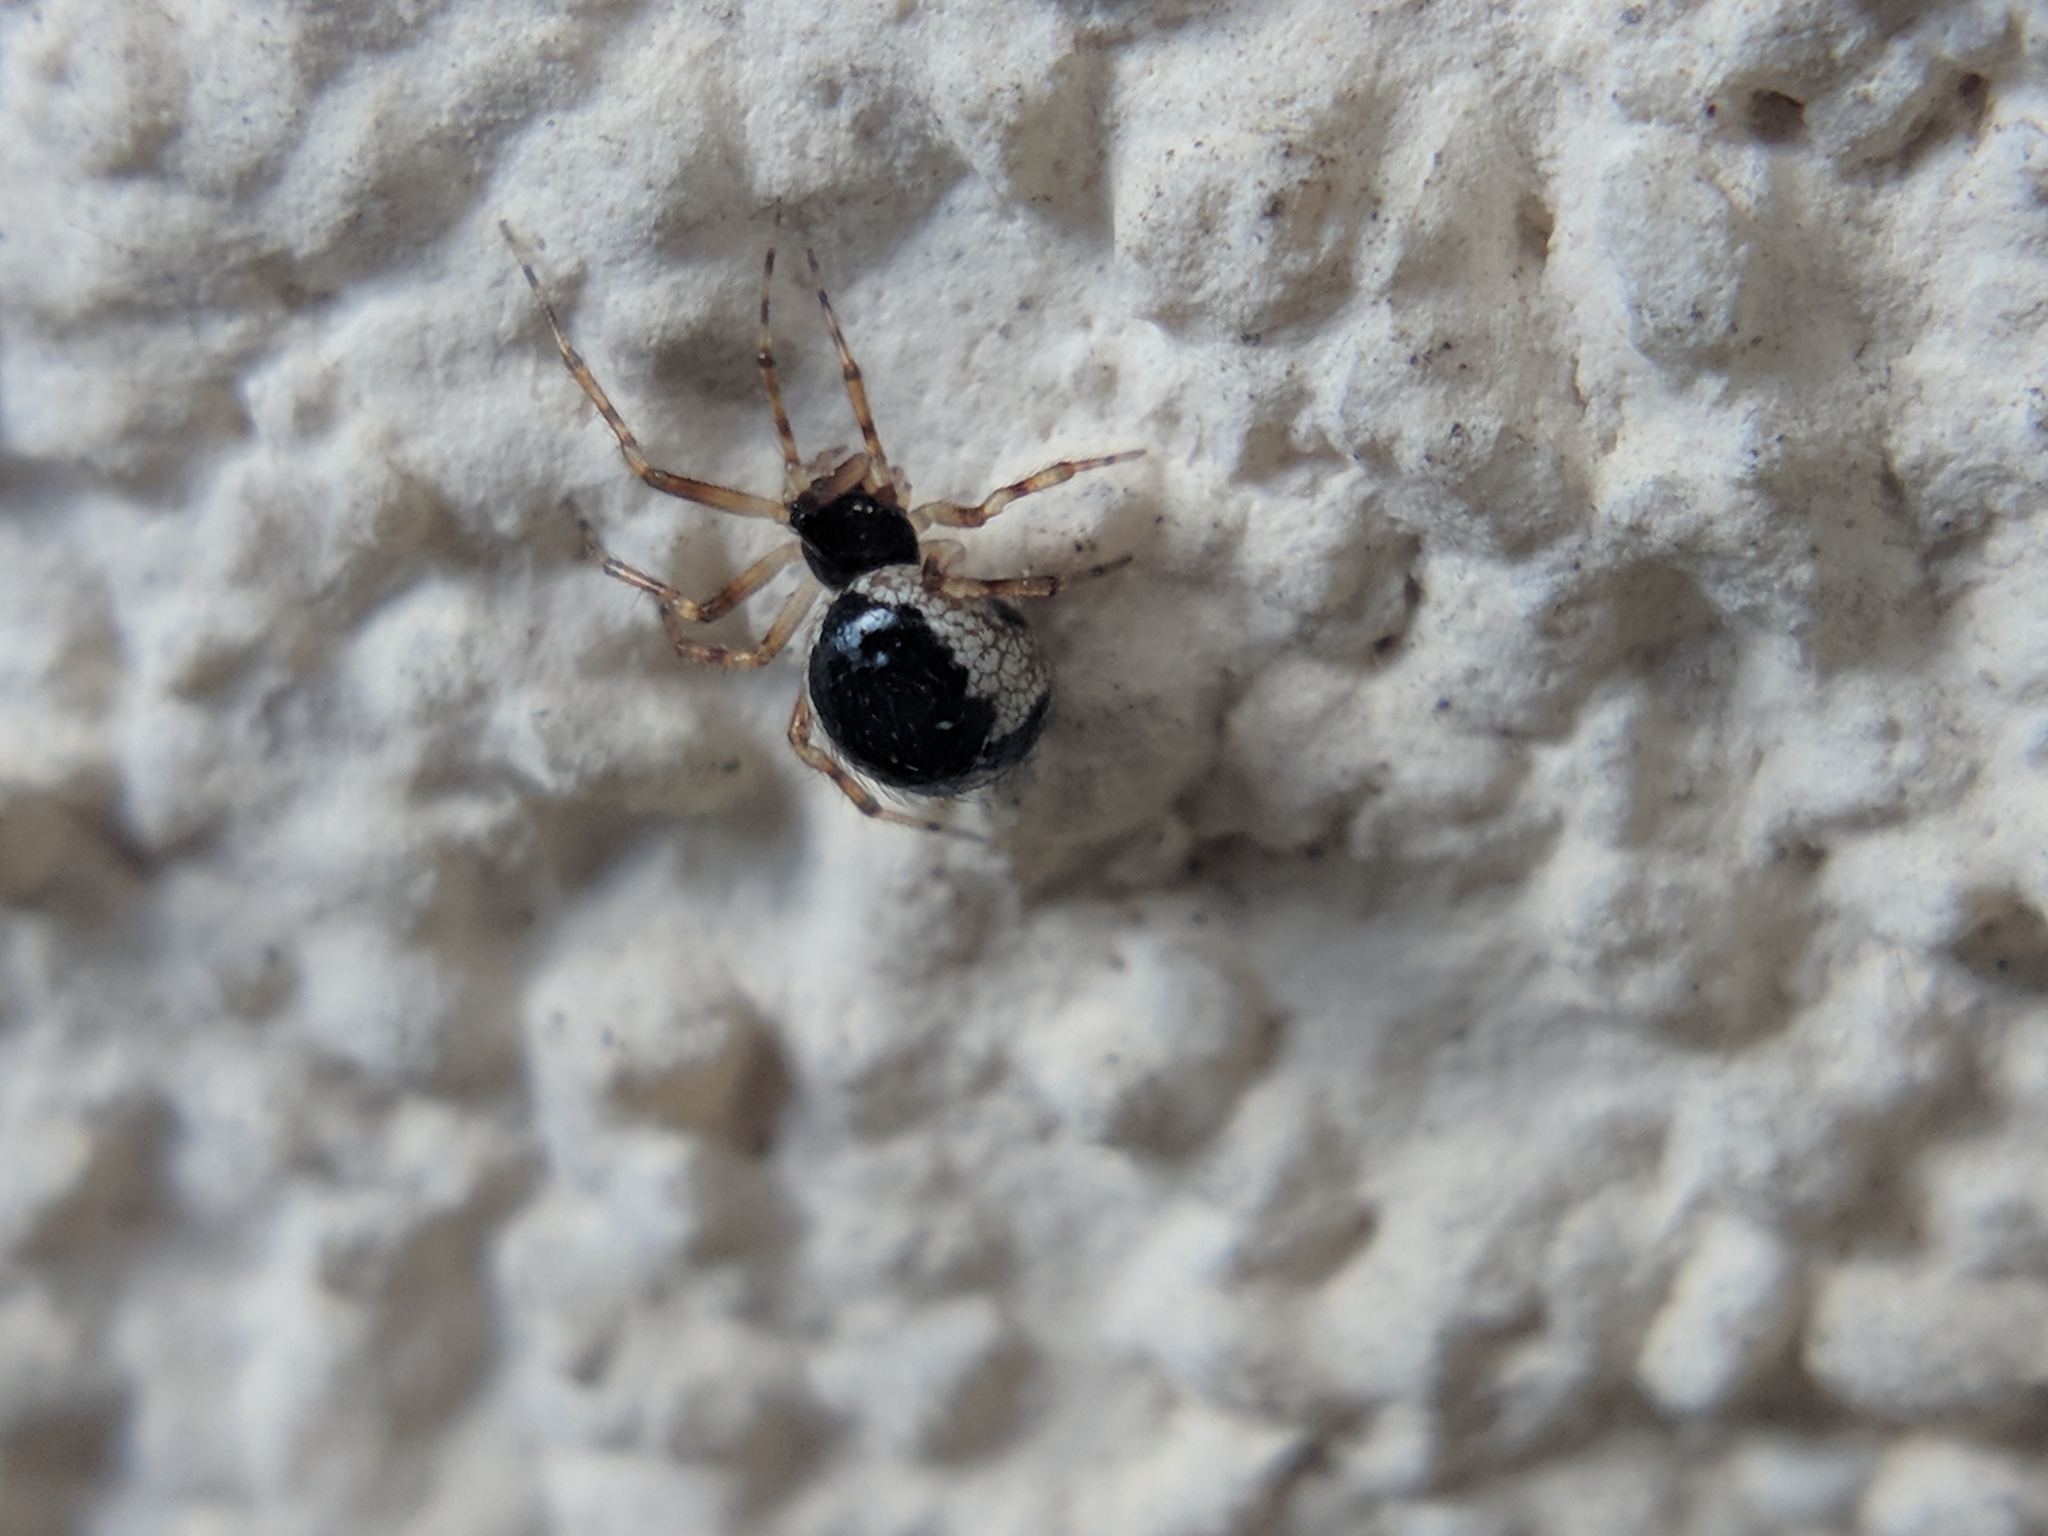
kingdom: Animalia
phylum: Arthropoda
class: Arachnida
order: Araneae
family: Theridiidae
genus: Sardinidion
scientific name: Sardinidion blackwalli
